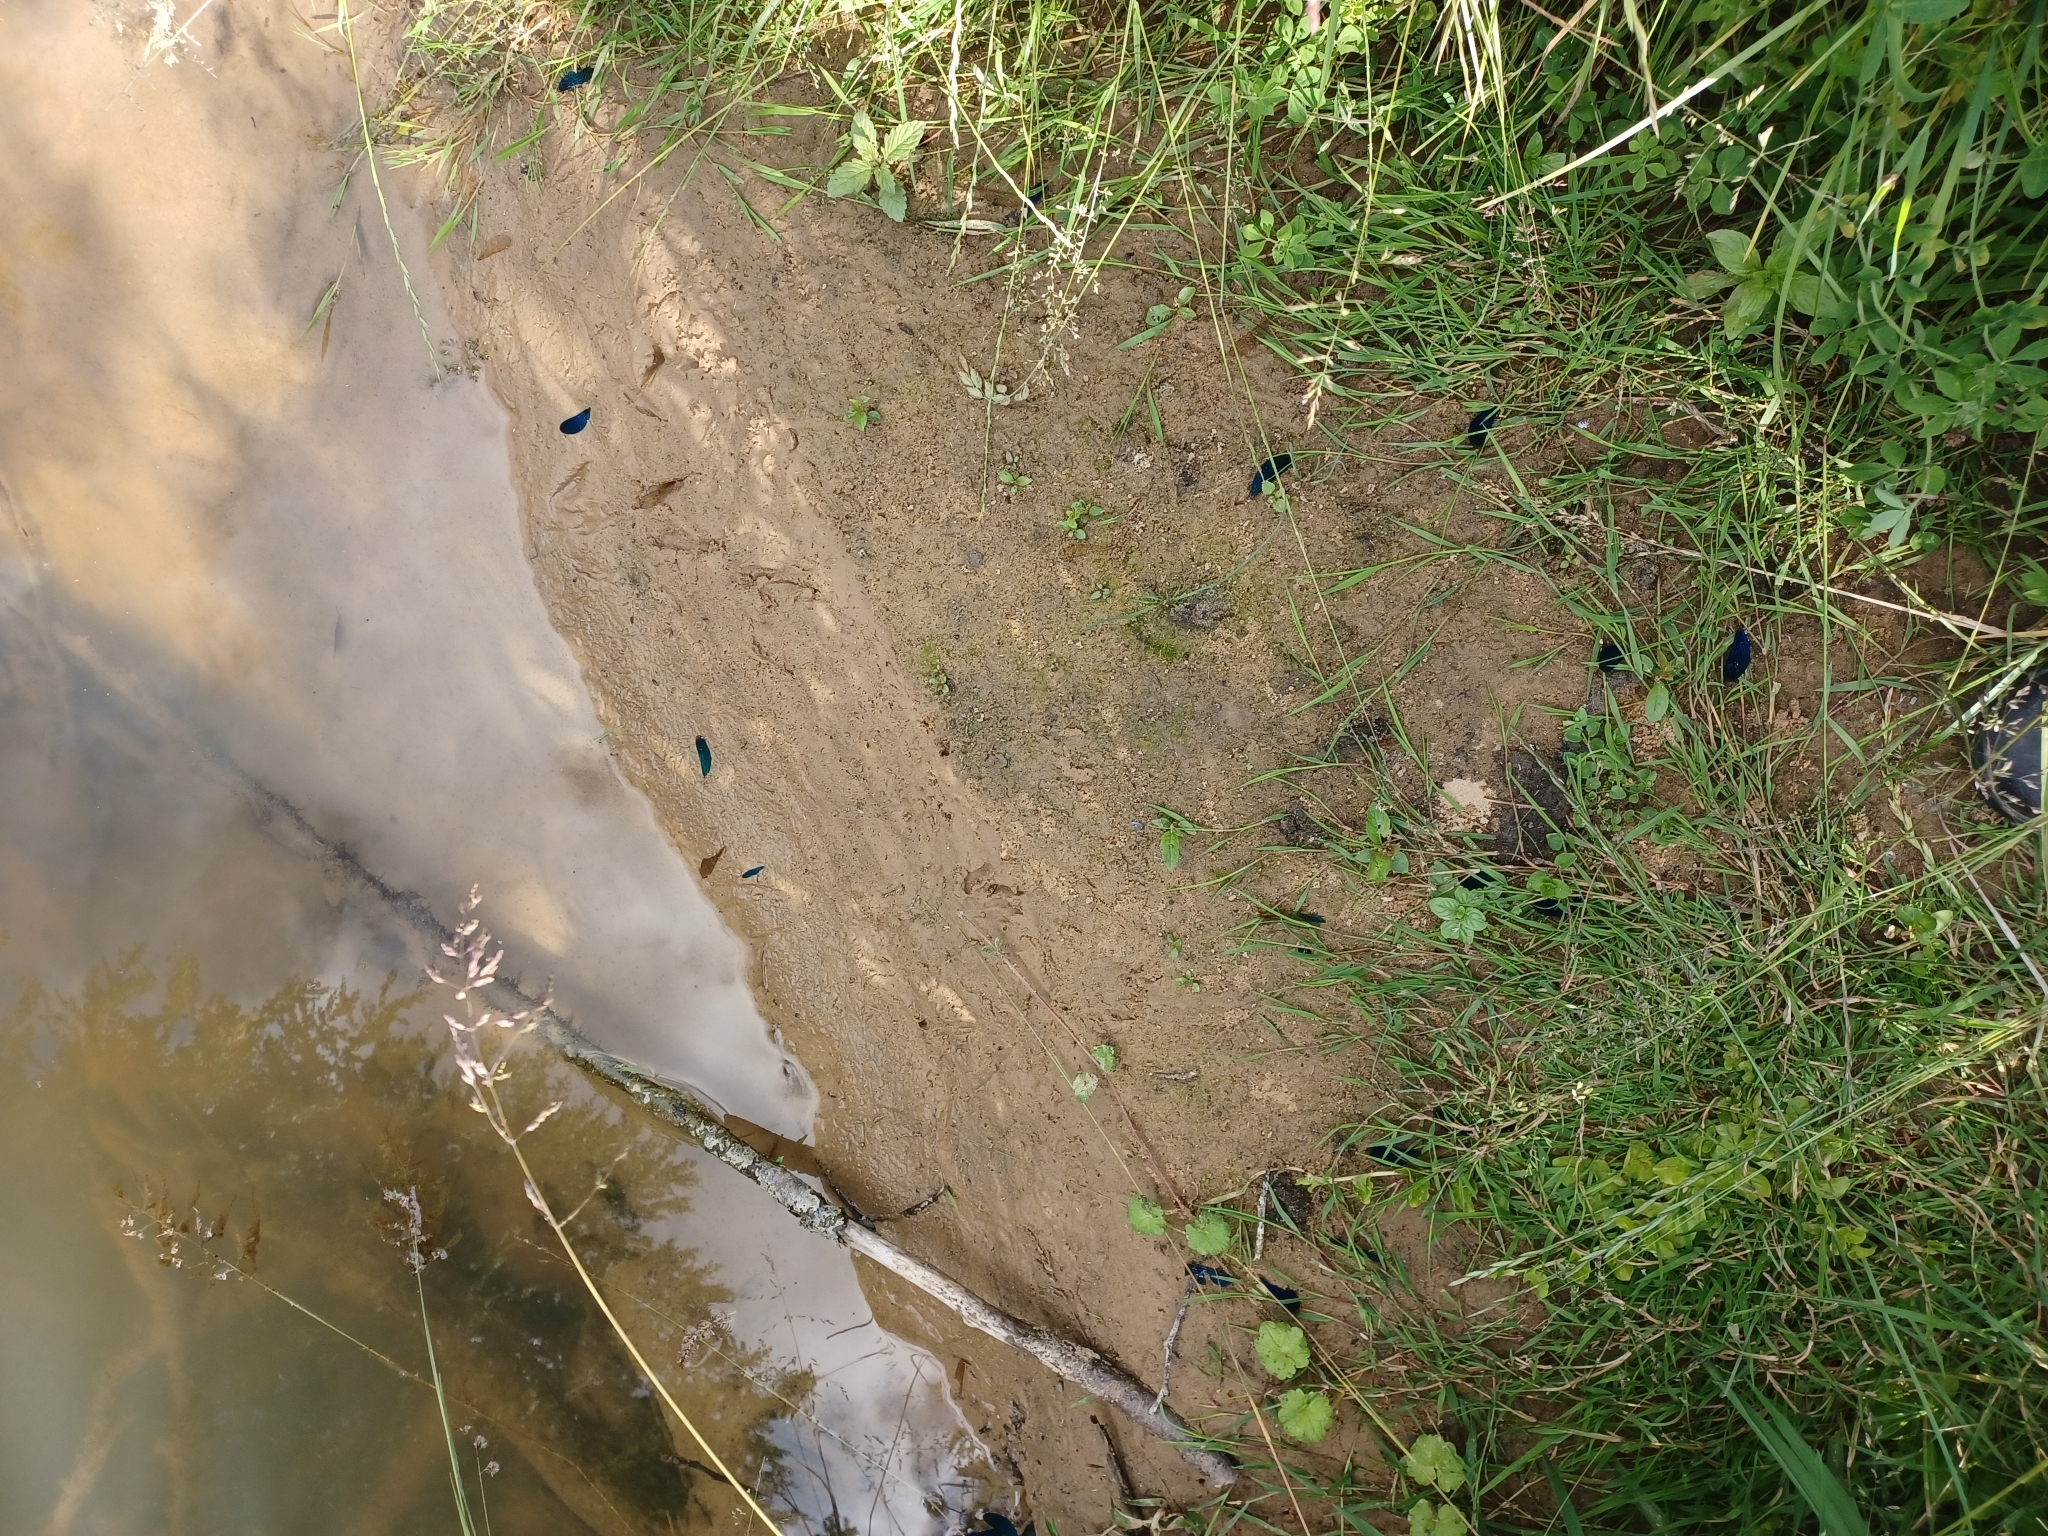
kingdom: Animalia
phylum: Arthropoda
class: Insecta
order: Odonata
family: Calopterygidae
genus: Calopteryx
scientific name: Calopteryx virgo
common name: Beautiful demoiselle
